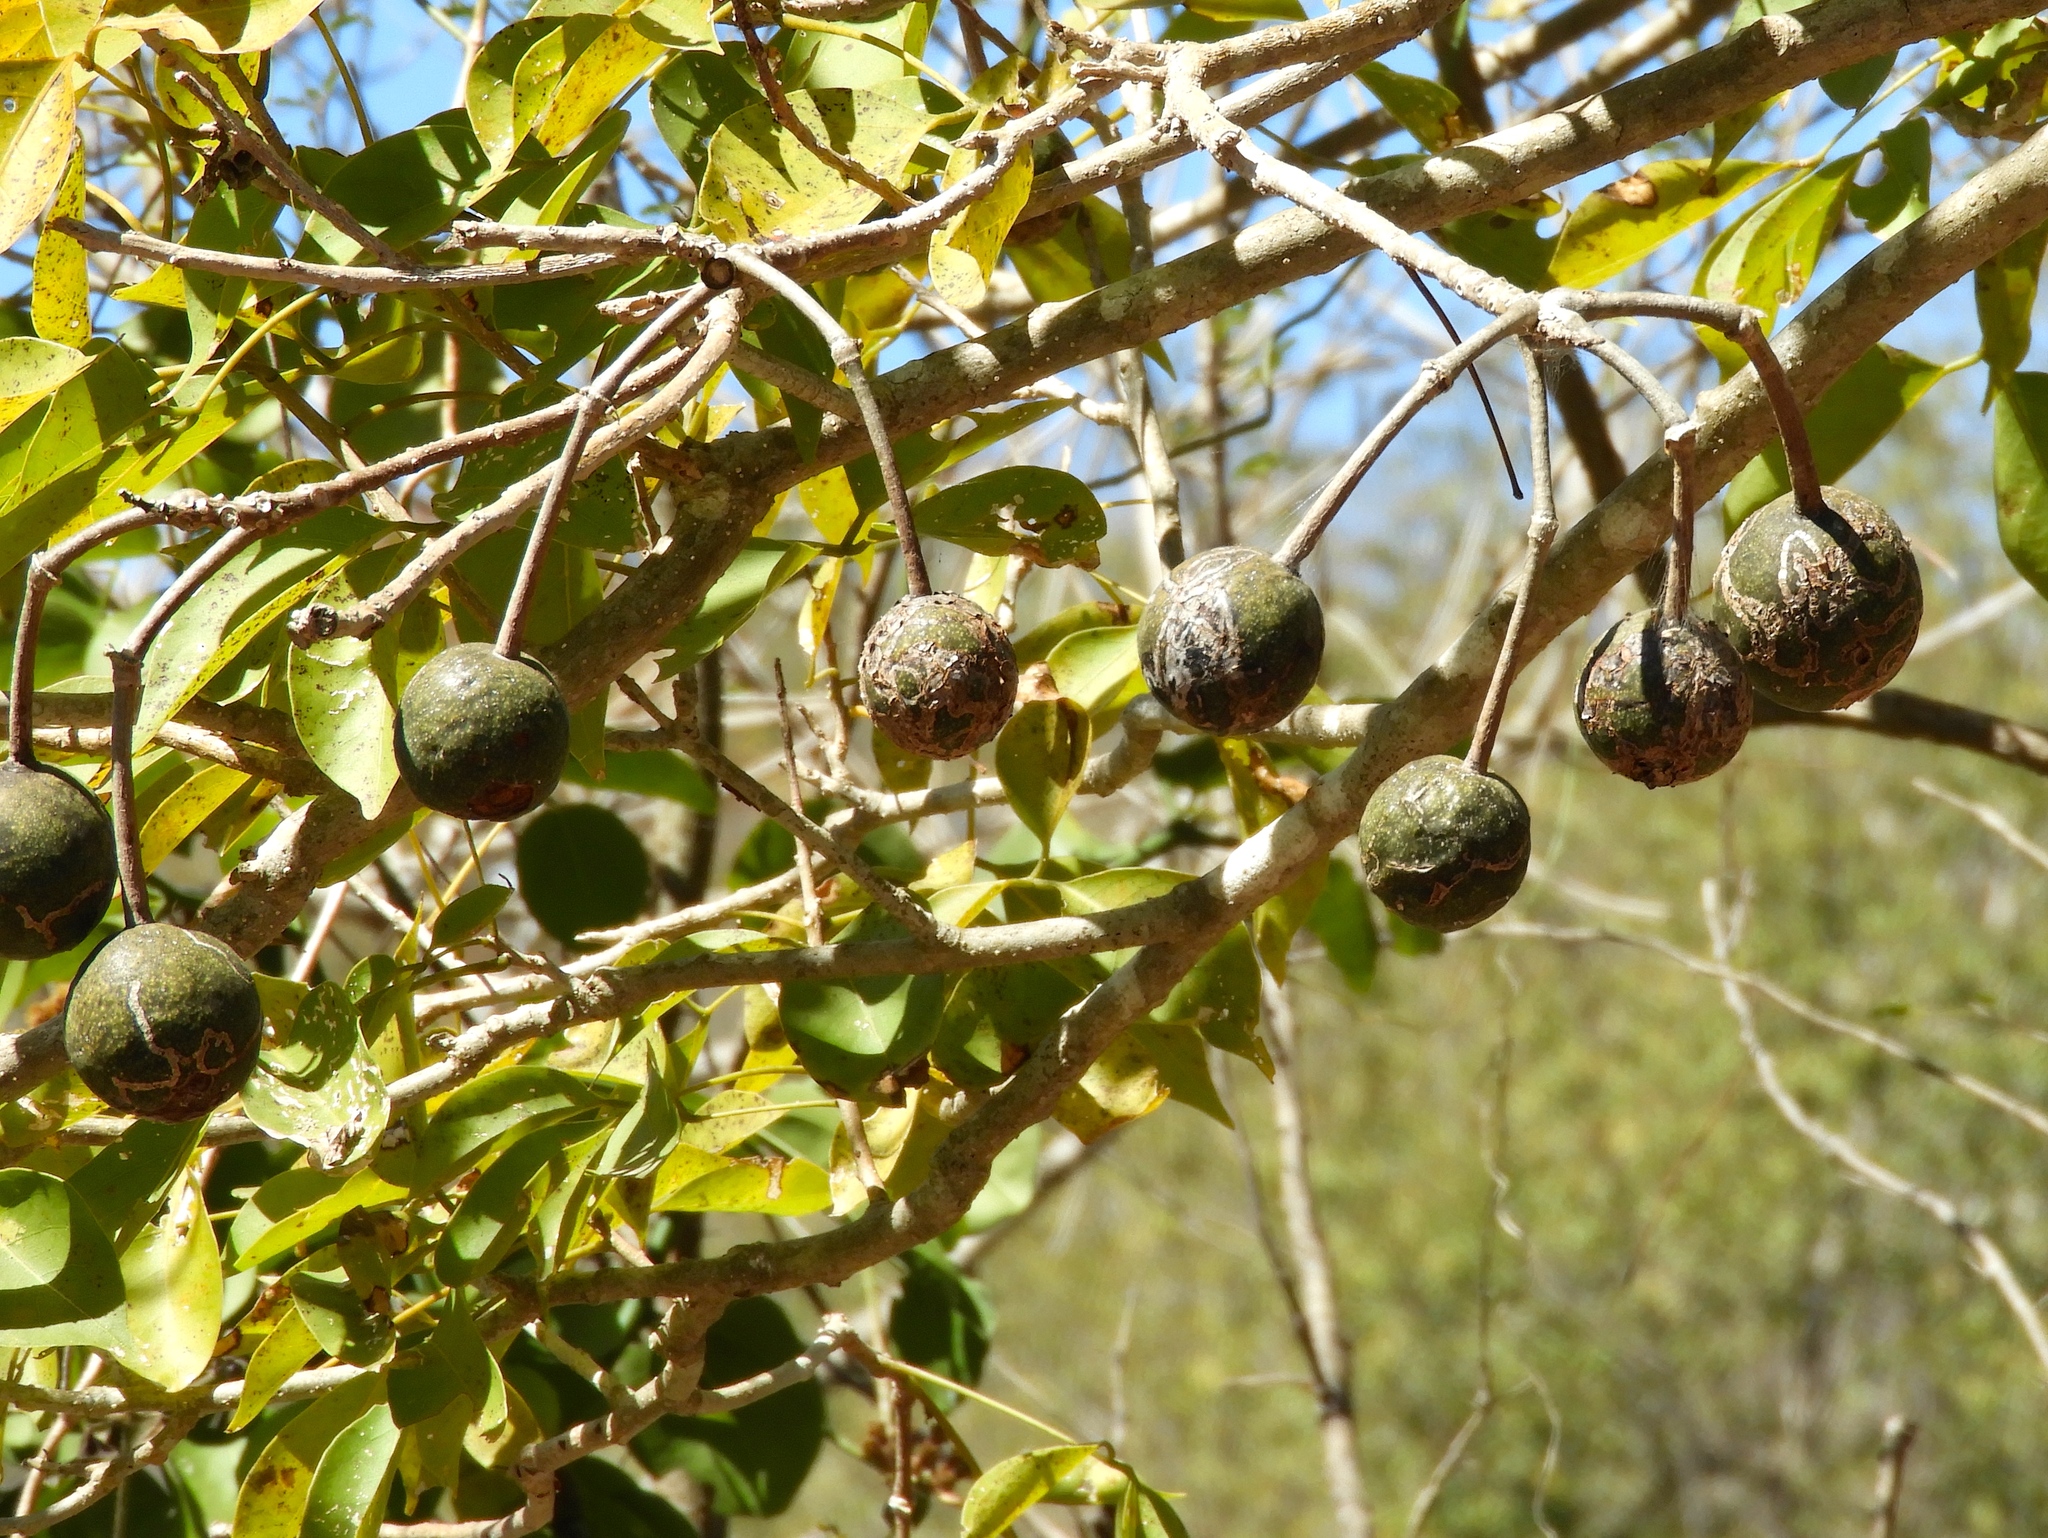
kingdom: Plantae
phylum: Tracheophyta
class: Magnoliopsida
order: Brassicales
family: Capparaceae
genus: Crateva
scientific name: Crateva tapia
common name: Garlic-pear
